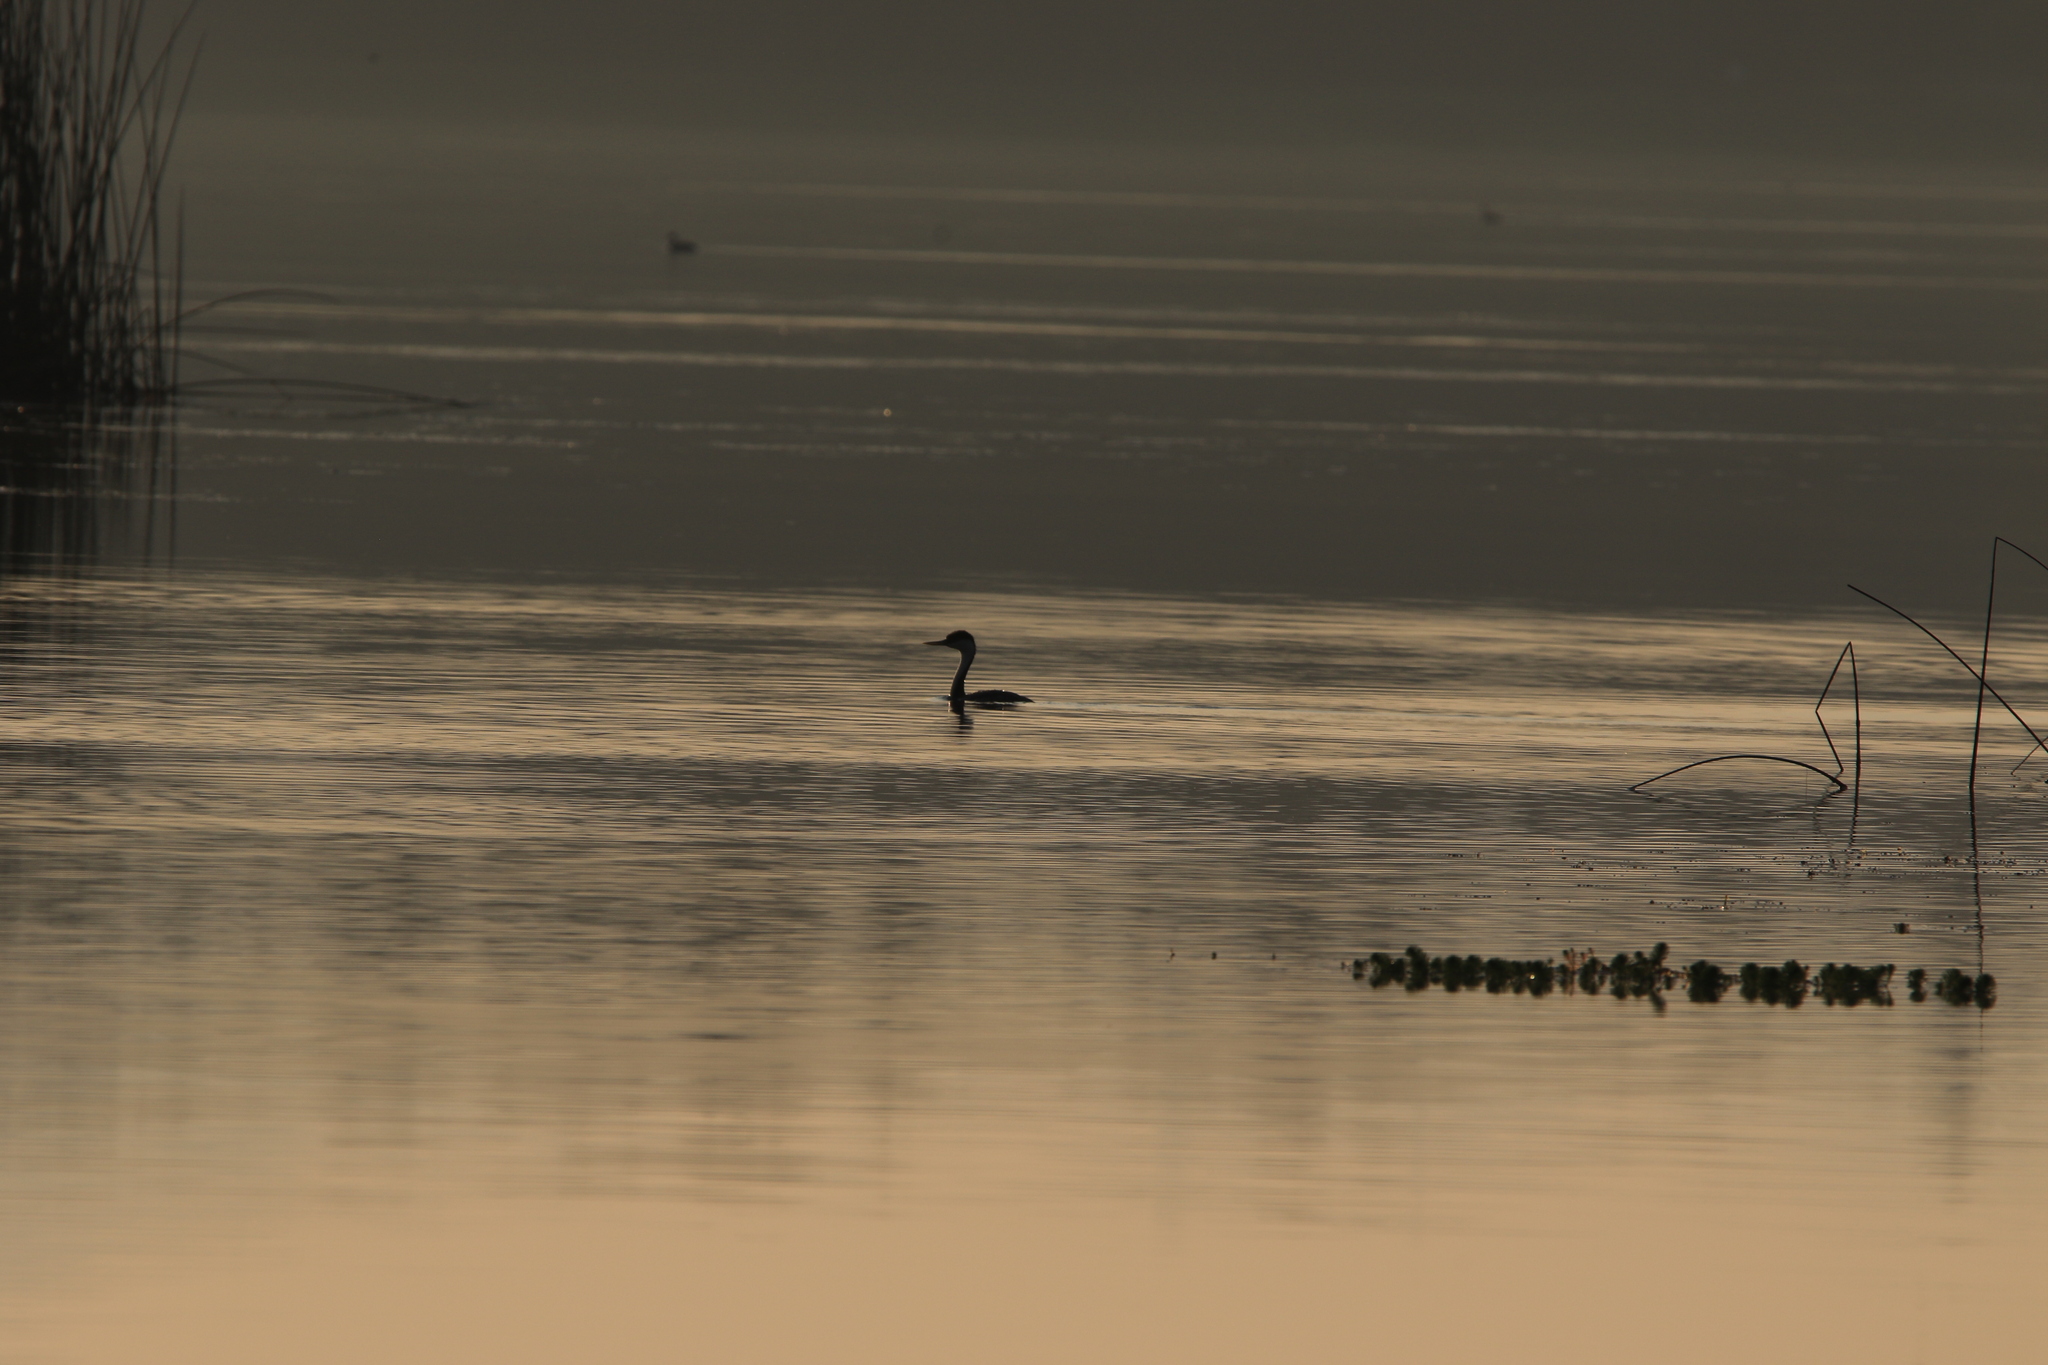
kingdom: Animalia
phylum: Chordata
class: Aves
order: Podicipediformes
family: Podicipedidae
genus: Aechmophorus
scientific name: Aechmophorus occidentalis
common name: Western grebe
